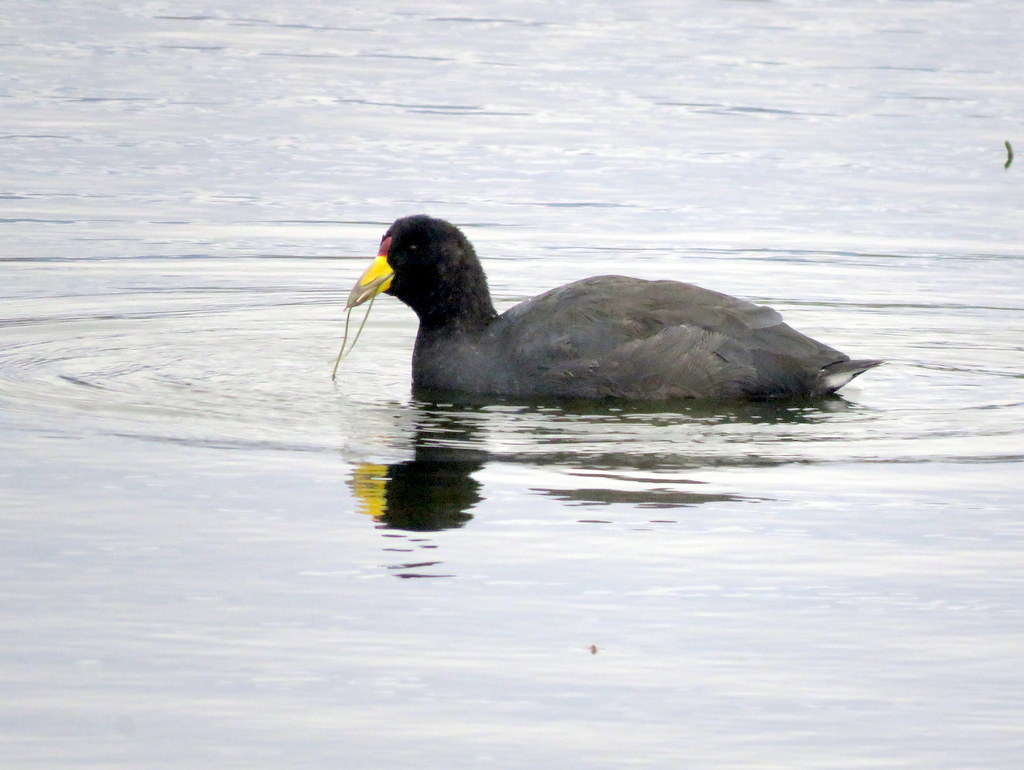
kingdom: Animalia
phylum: Chordata
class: Aves
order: Gruiformes
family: Rallidae
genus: Fulica
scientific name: Fulica ardesiaca
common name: Andean coot
